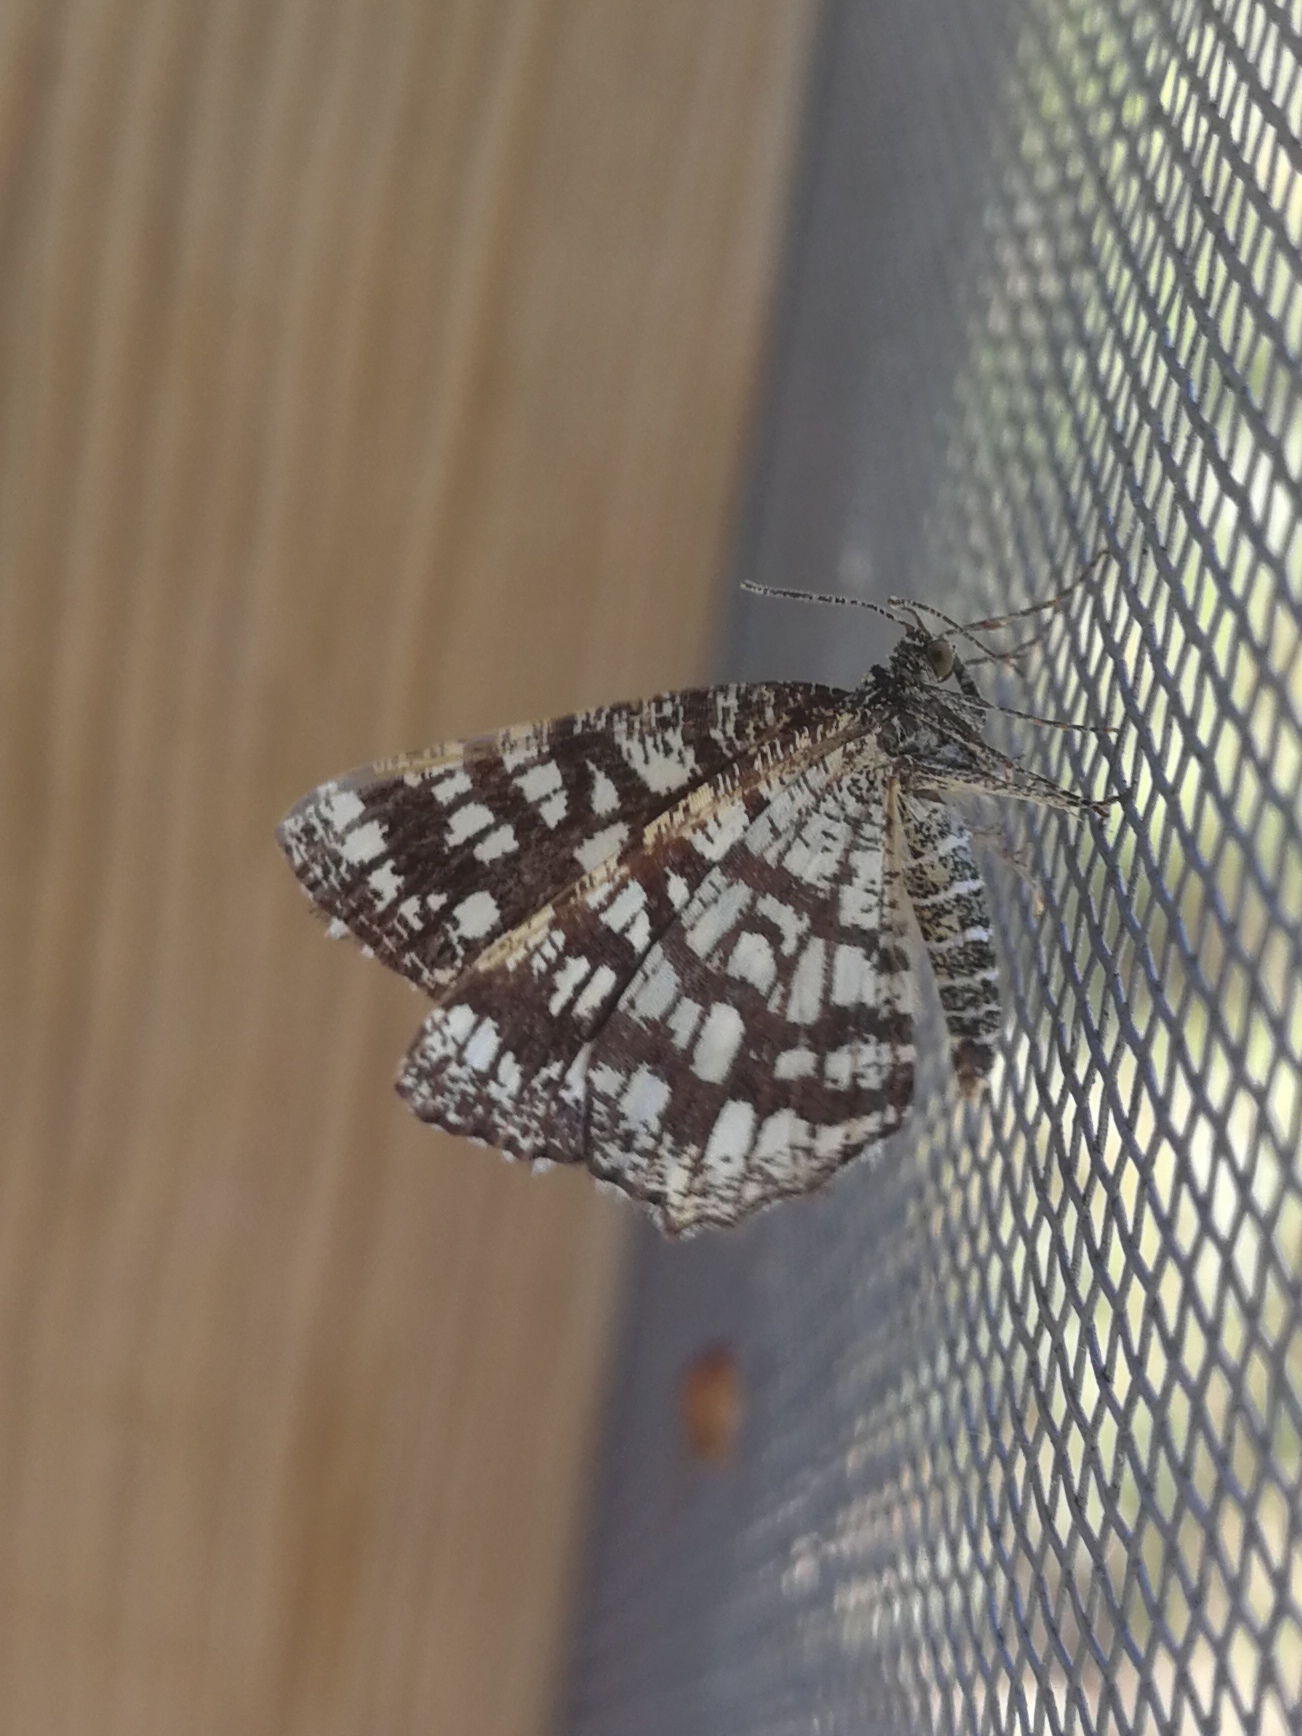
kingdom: Animalia
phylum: Arthropoda
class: Insecta
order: Lepidoptera
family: Geometridae
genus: Chiasmia
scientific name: Chiasmia clathrata
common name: Latticed heath
